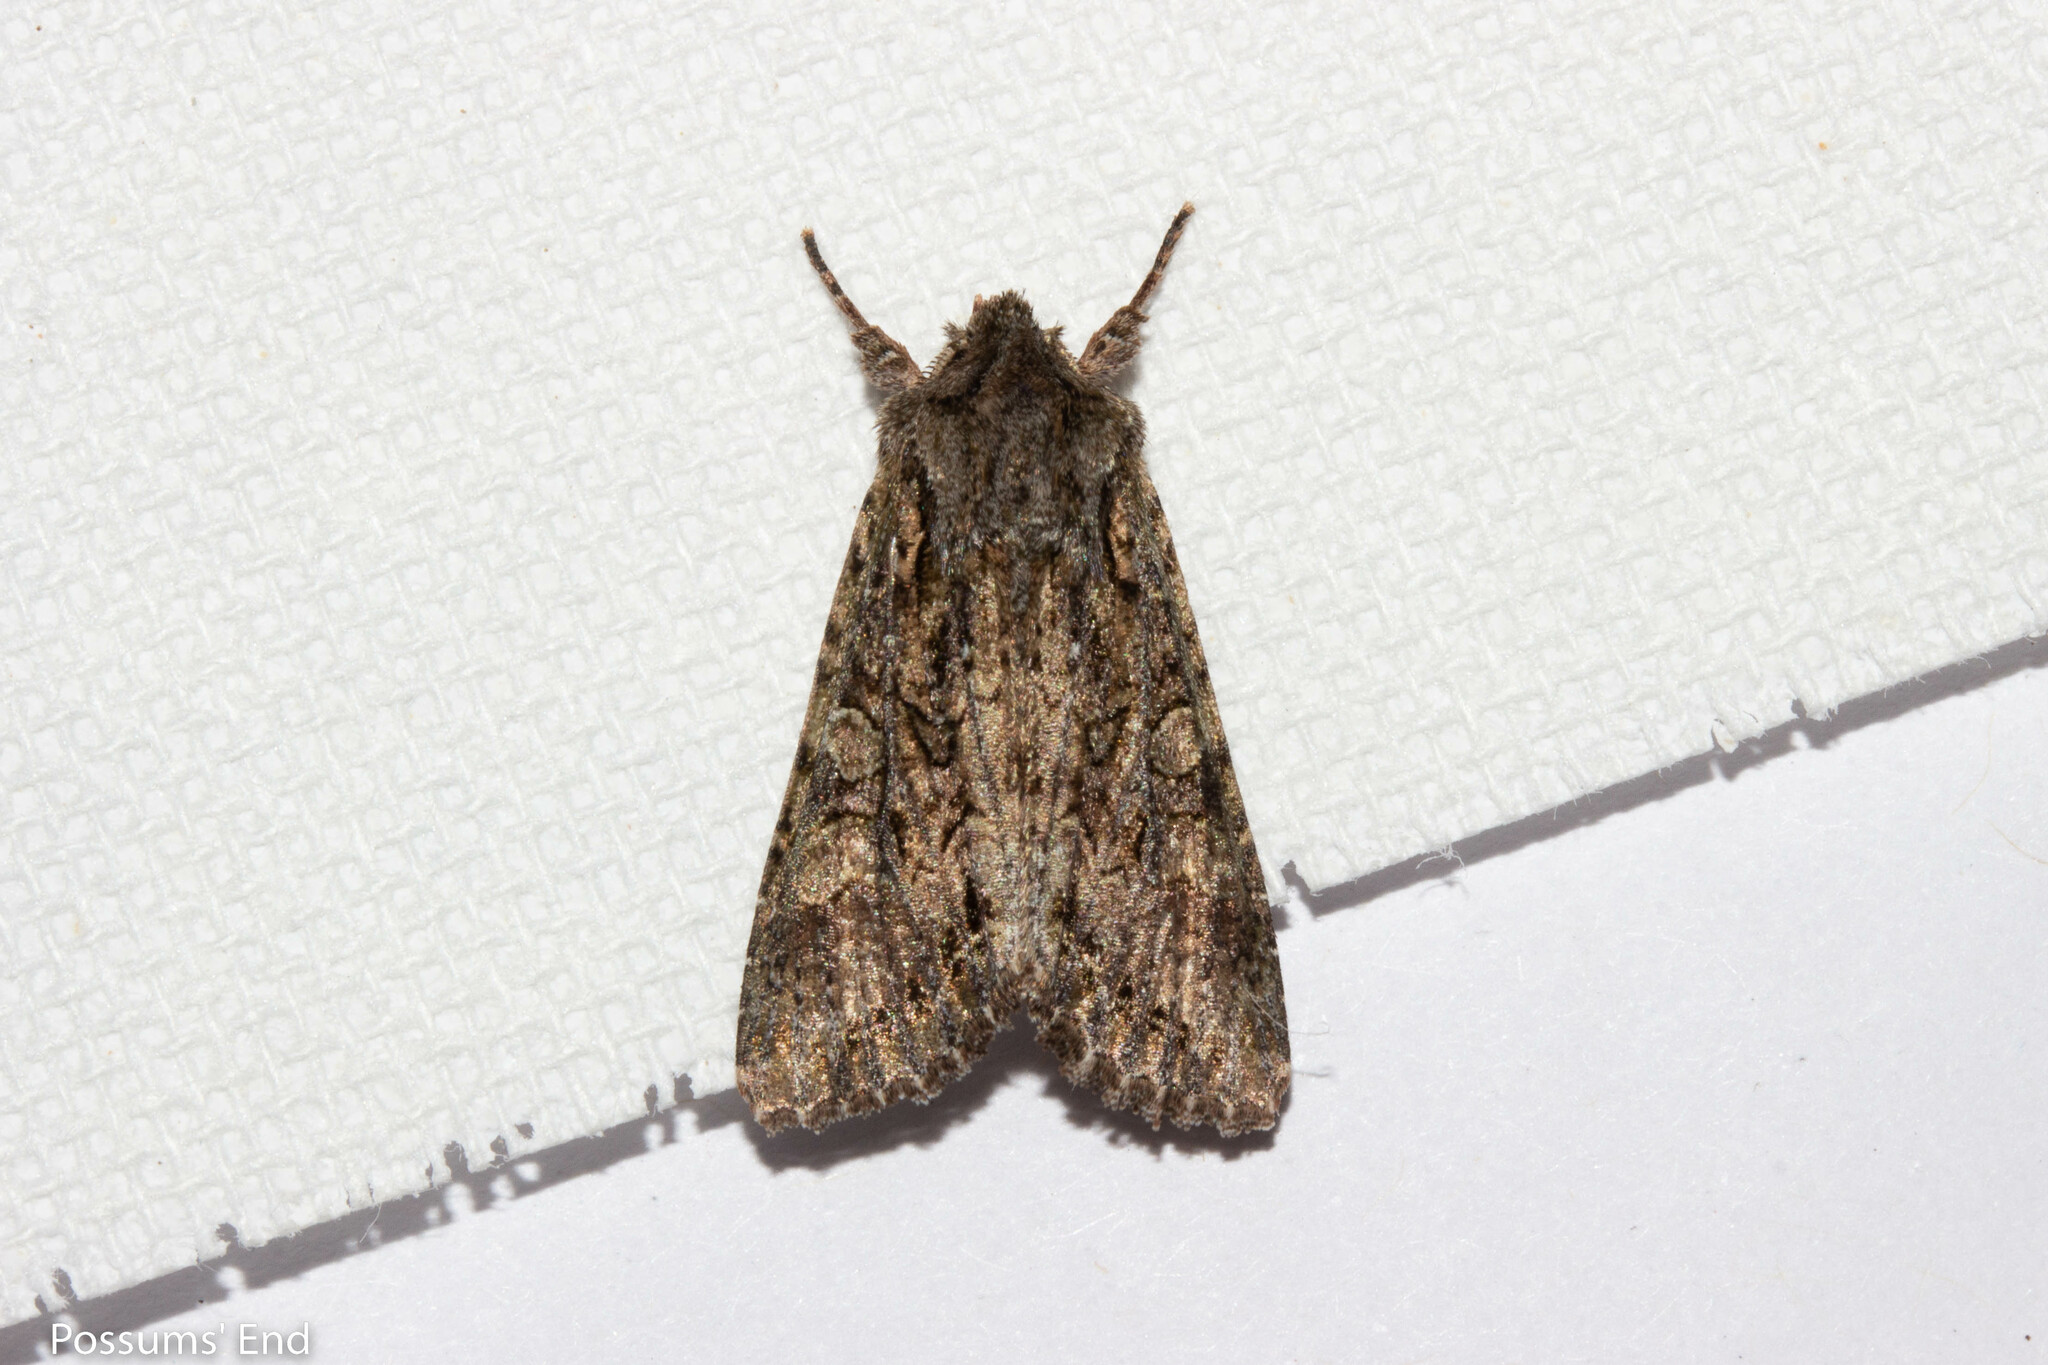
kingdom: Animalia
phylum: Arthropoda
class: Insecta
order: Lepidoptera
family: Noctuidae
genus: Ichneutica
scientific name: Ichneutica mutans
